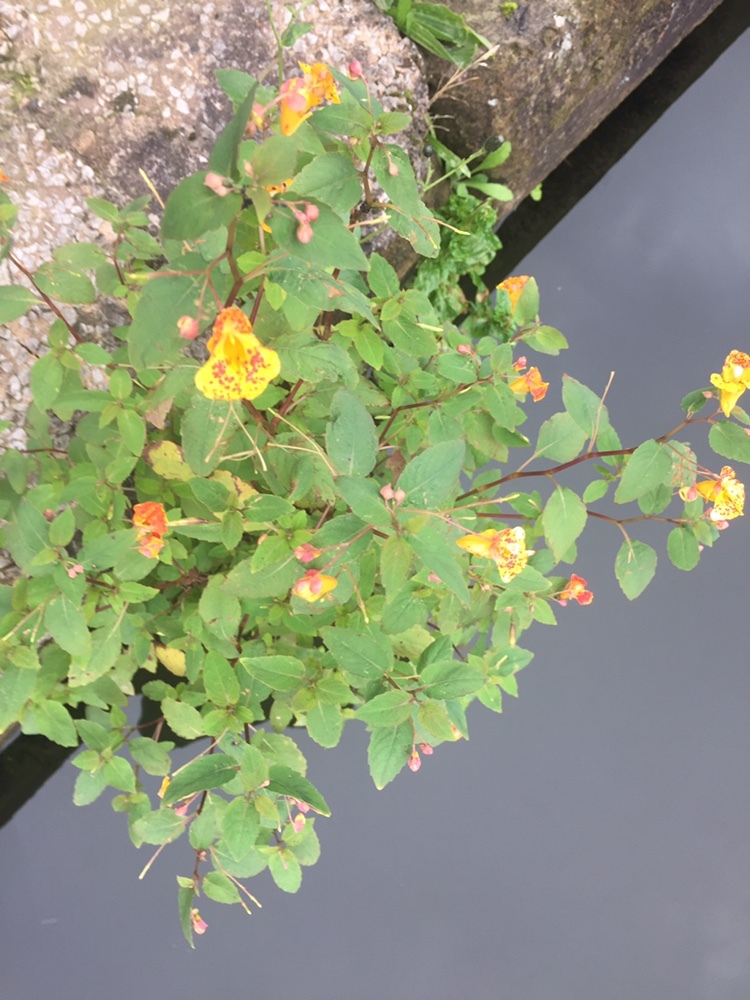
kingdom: Plantae
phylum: Tracheophyta
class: Magnoliopsida
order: Ericales
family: Balsaminaceae
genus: Impatiens
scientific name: Impatiens capensis
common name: Orange balsam
